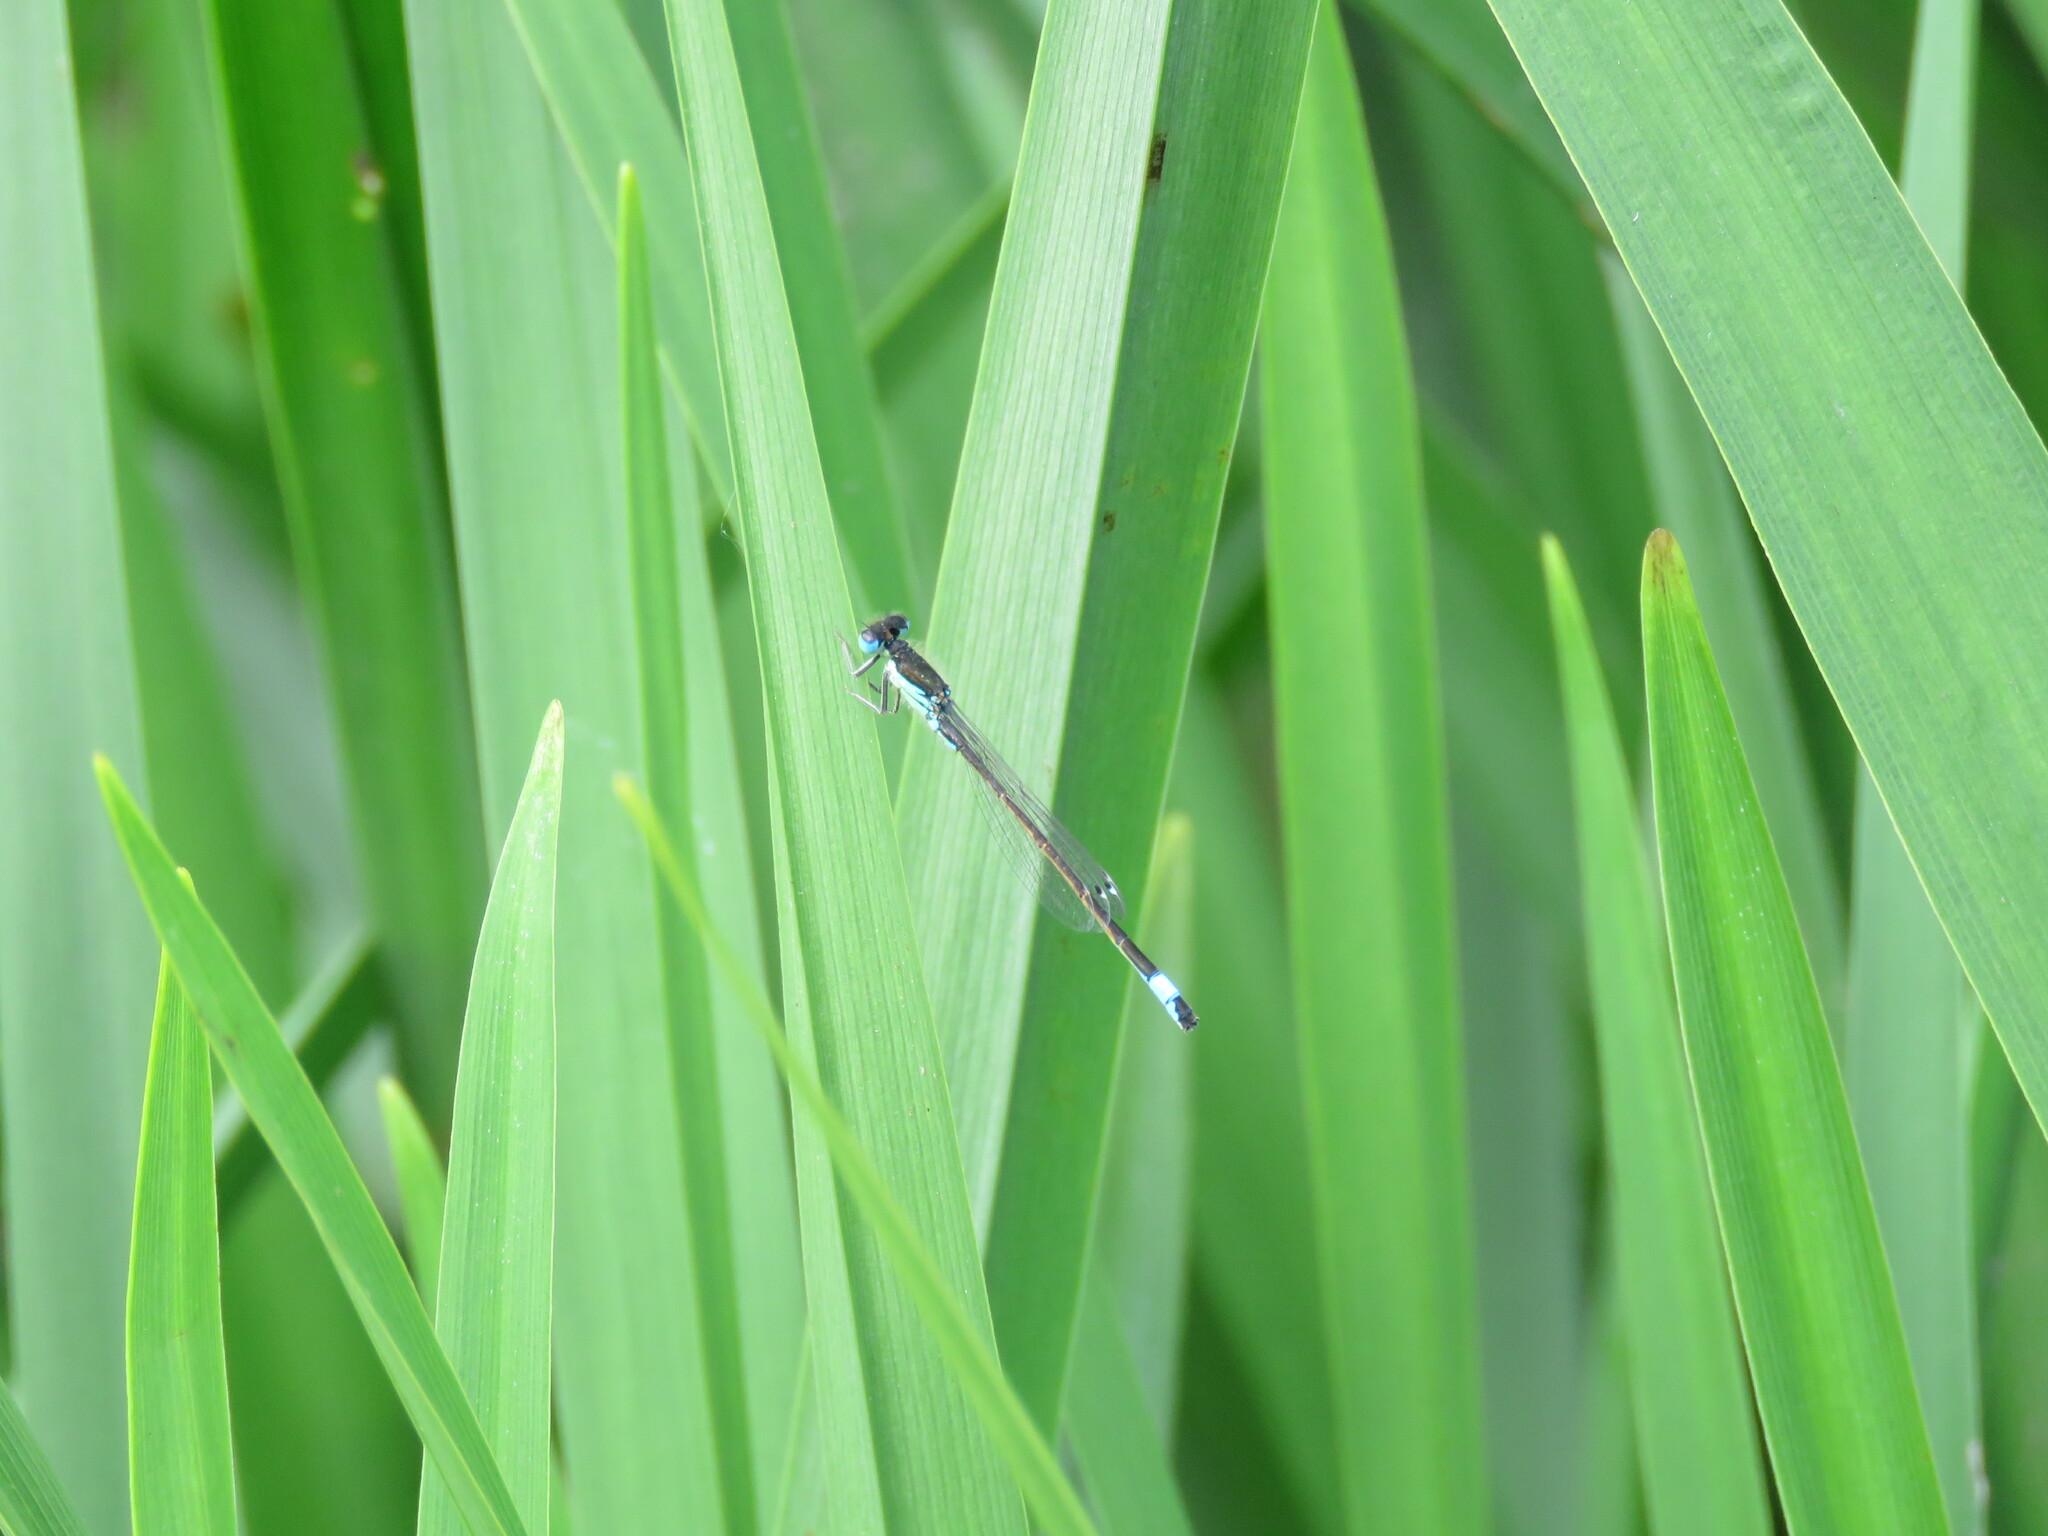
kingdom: Animalia
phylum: Arthropoda
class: Insecta
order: Odonata
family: Coenagrionidae
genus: Ischnura
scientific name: Ischnura graellsii
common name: Iberian bluetail
